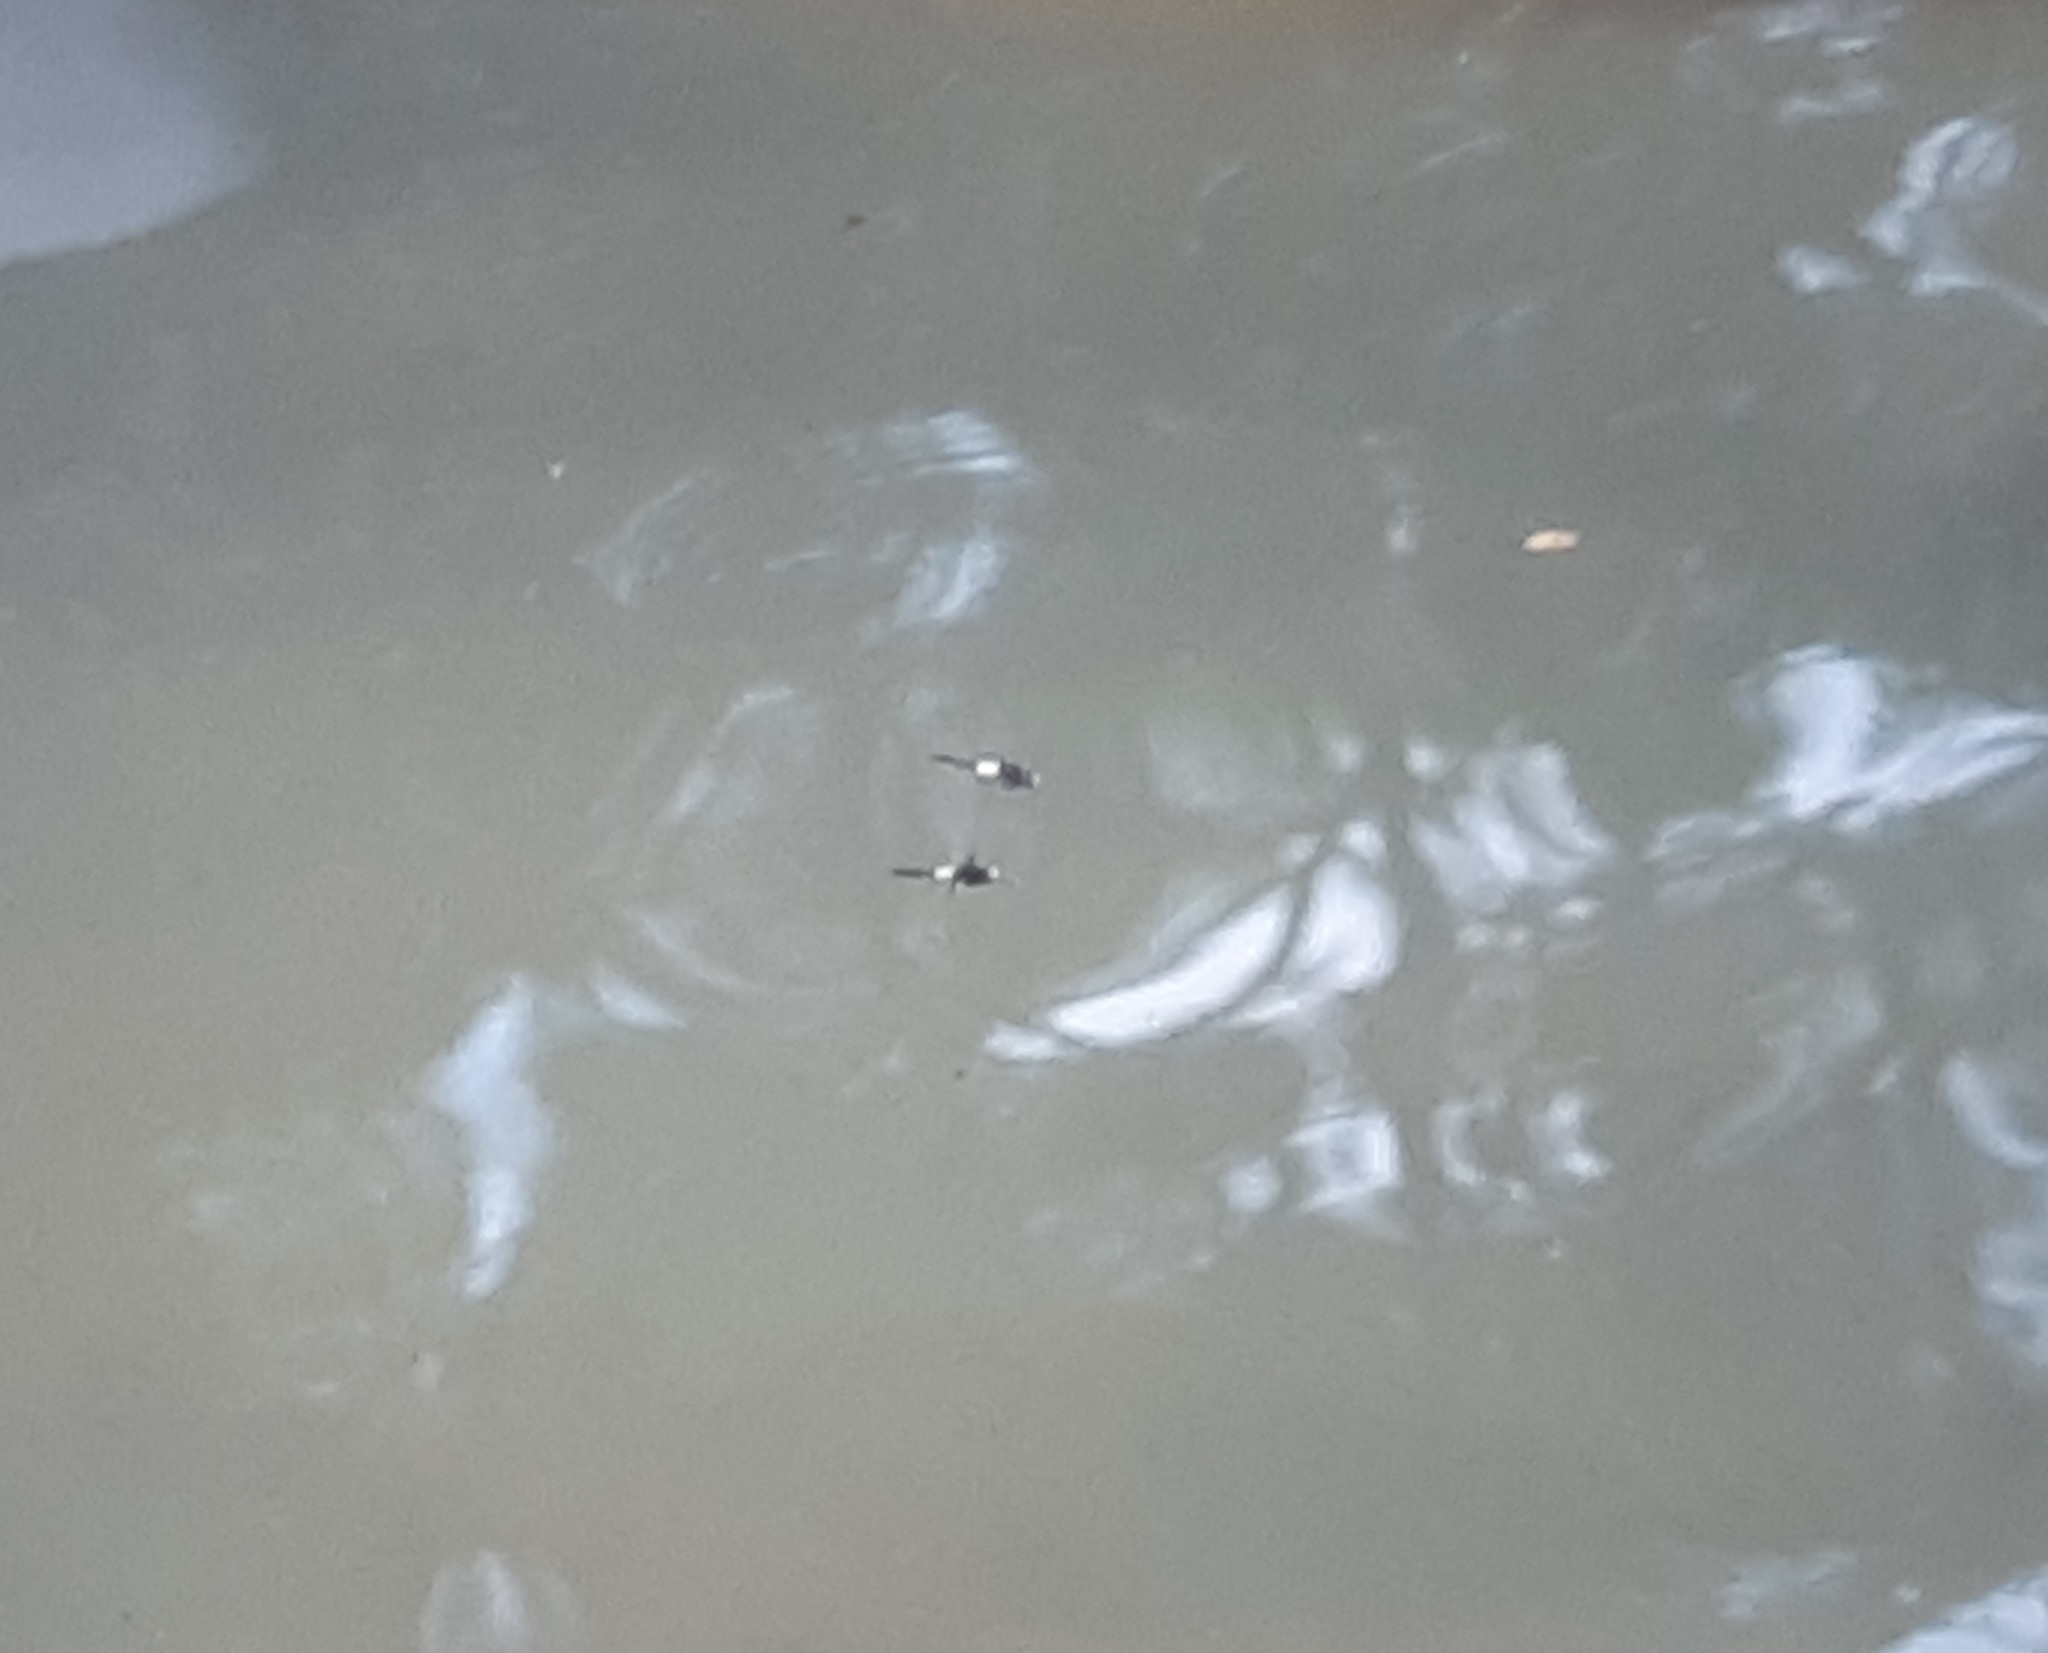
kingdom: Animalia
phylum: Arthropoda
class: Insecta
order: Odonata
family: Libellulidae
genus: Pseudothemis
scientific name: Pseudothemis zonata
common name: Pied skimmer
